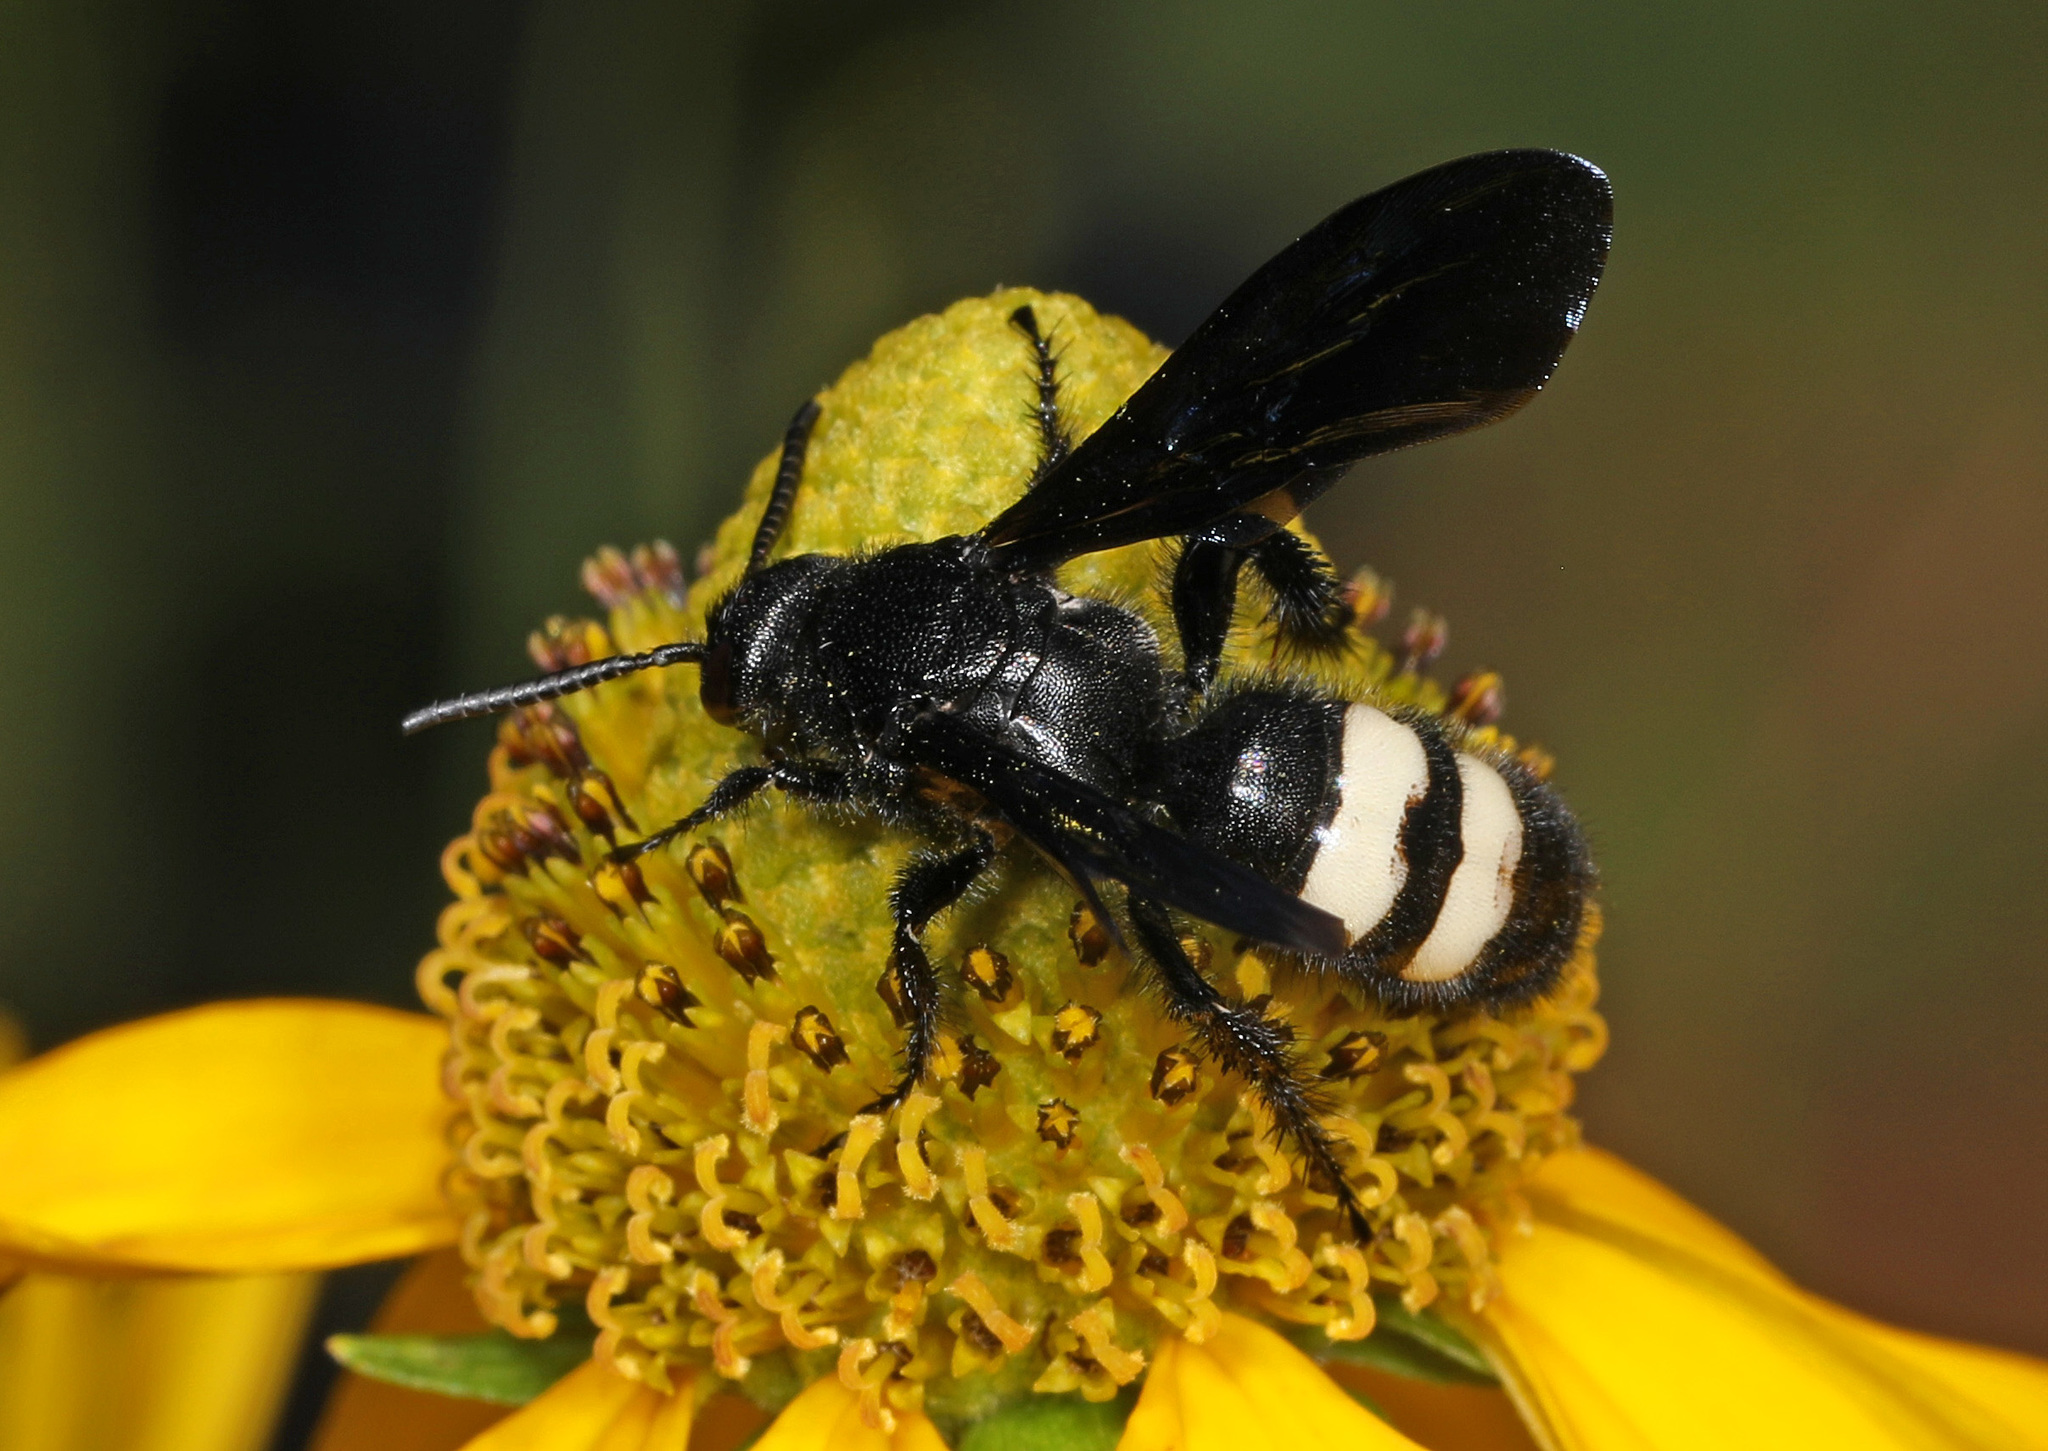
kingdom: Animalia
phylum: Arthropoda
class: Insecta
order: Hymenoptera
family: Scoliidae
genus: Scolia
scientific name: Scolia bicincta
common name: Double-banded scoliid wasp
